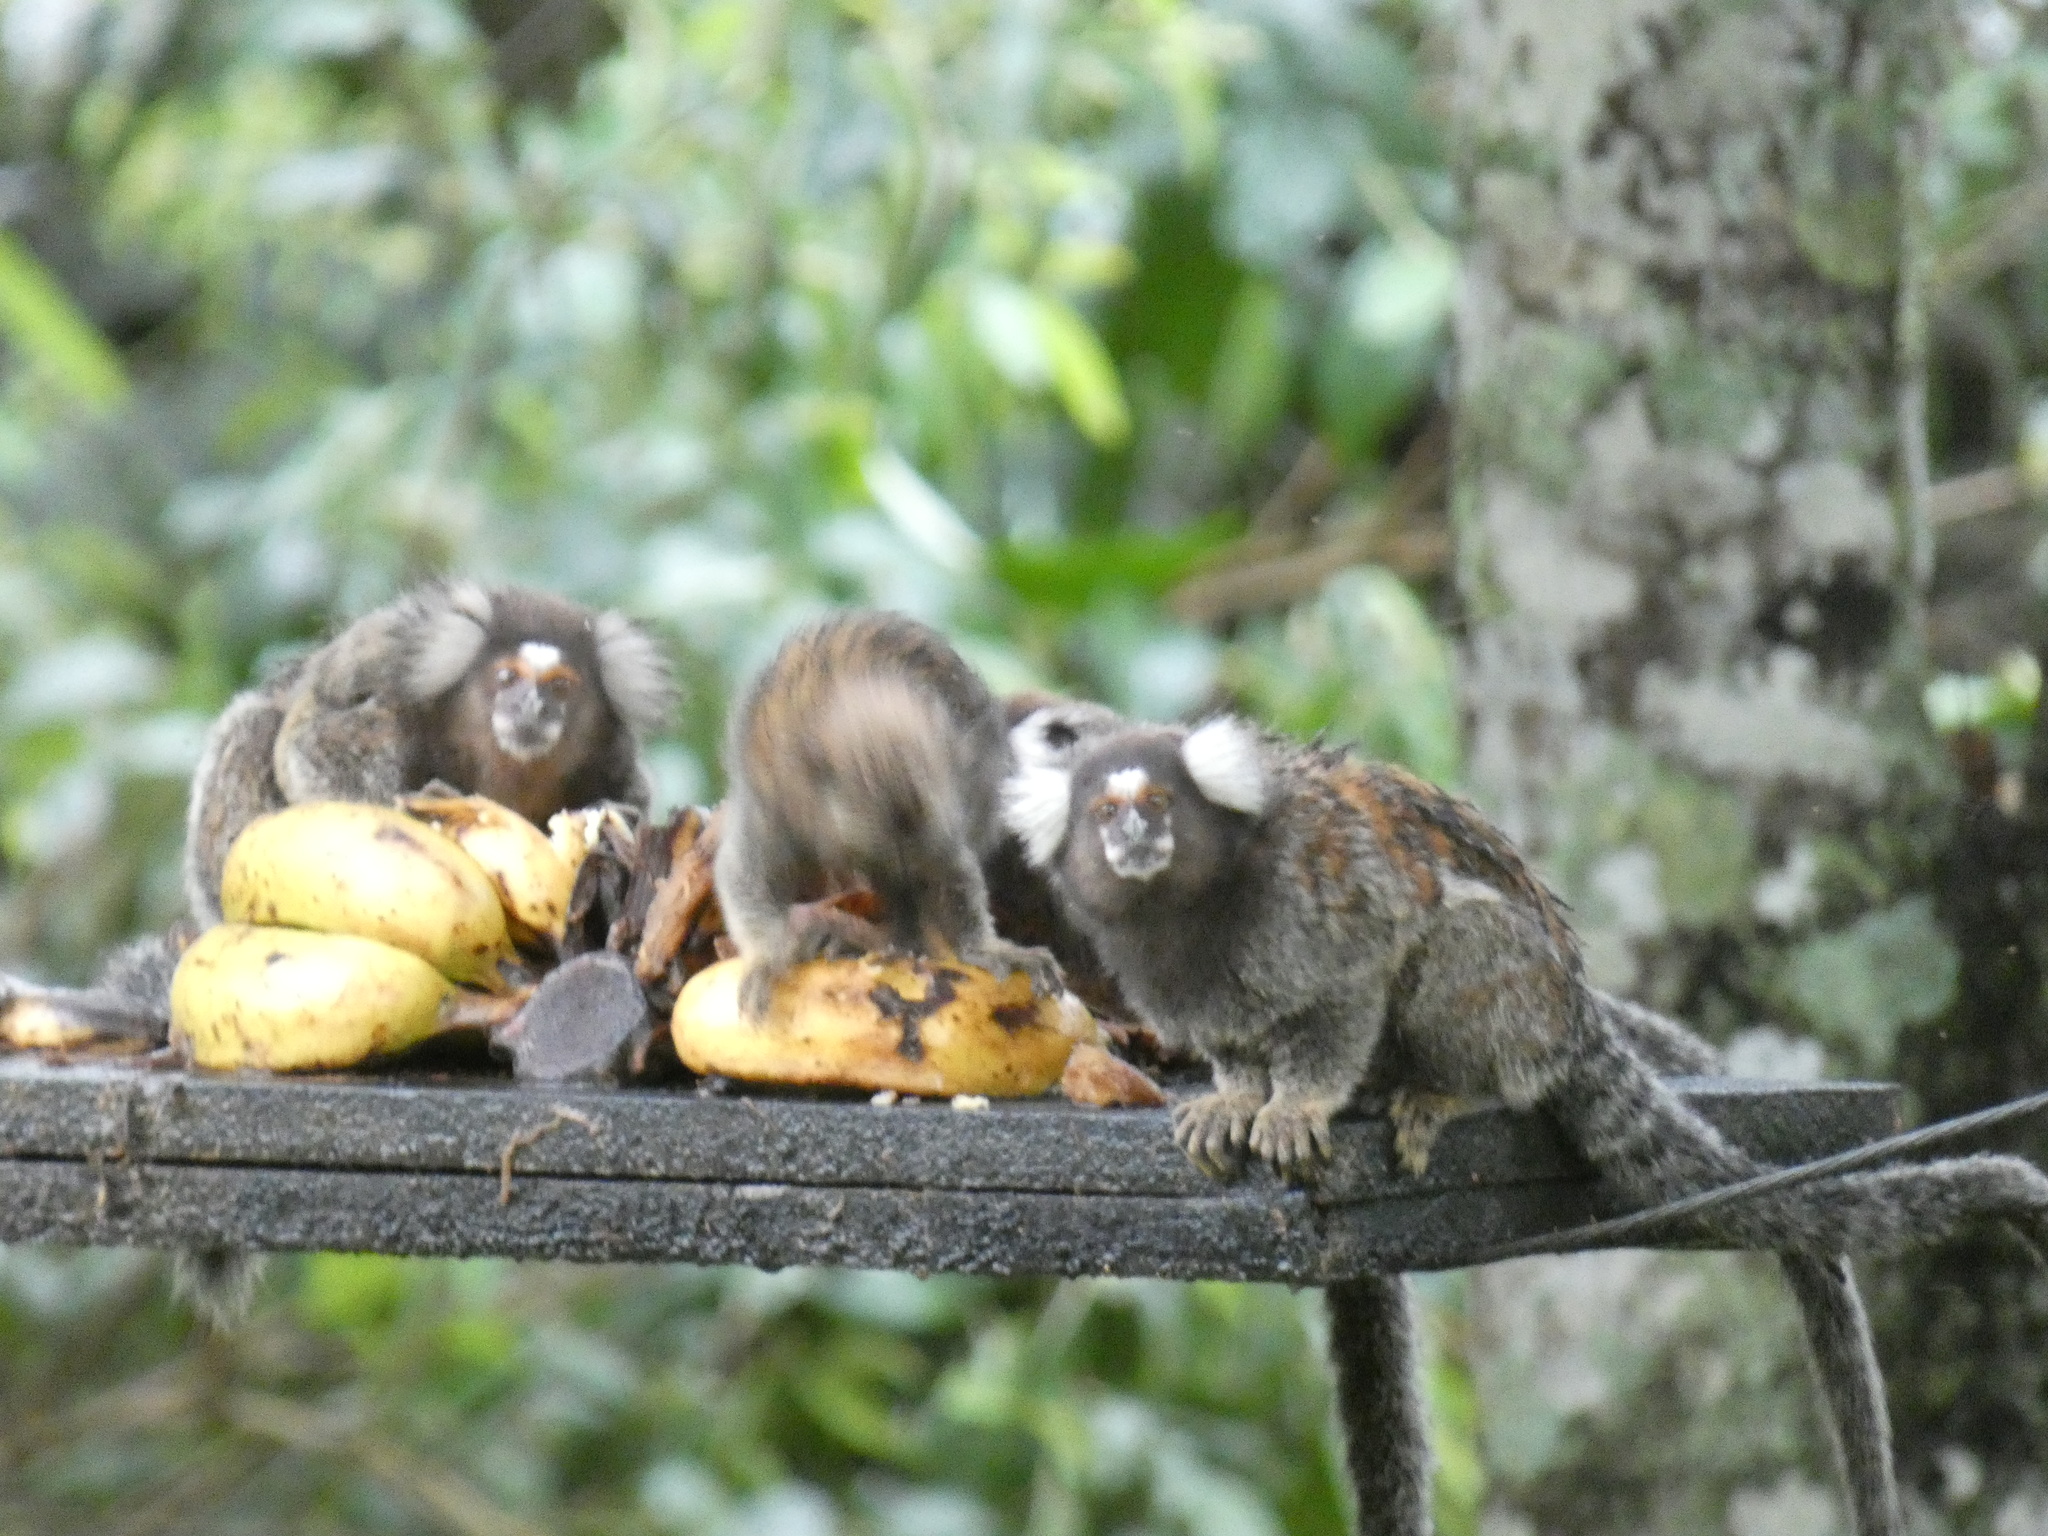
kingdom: Animalia
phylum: Chordata
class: Mammalia
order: Primates
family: Callitrichidae
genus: Callithrix
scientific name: Callithrix jacchus
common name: Common marmoset
